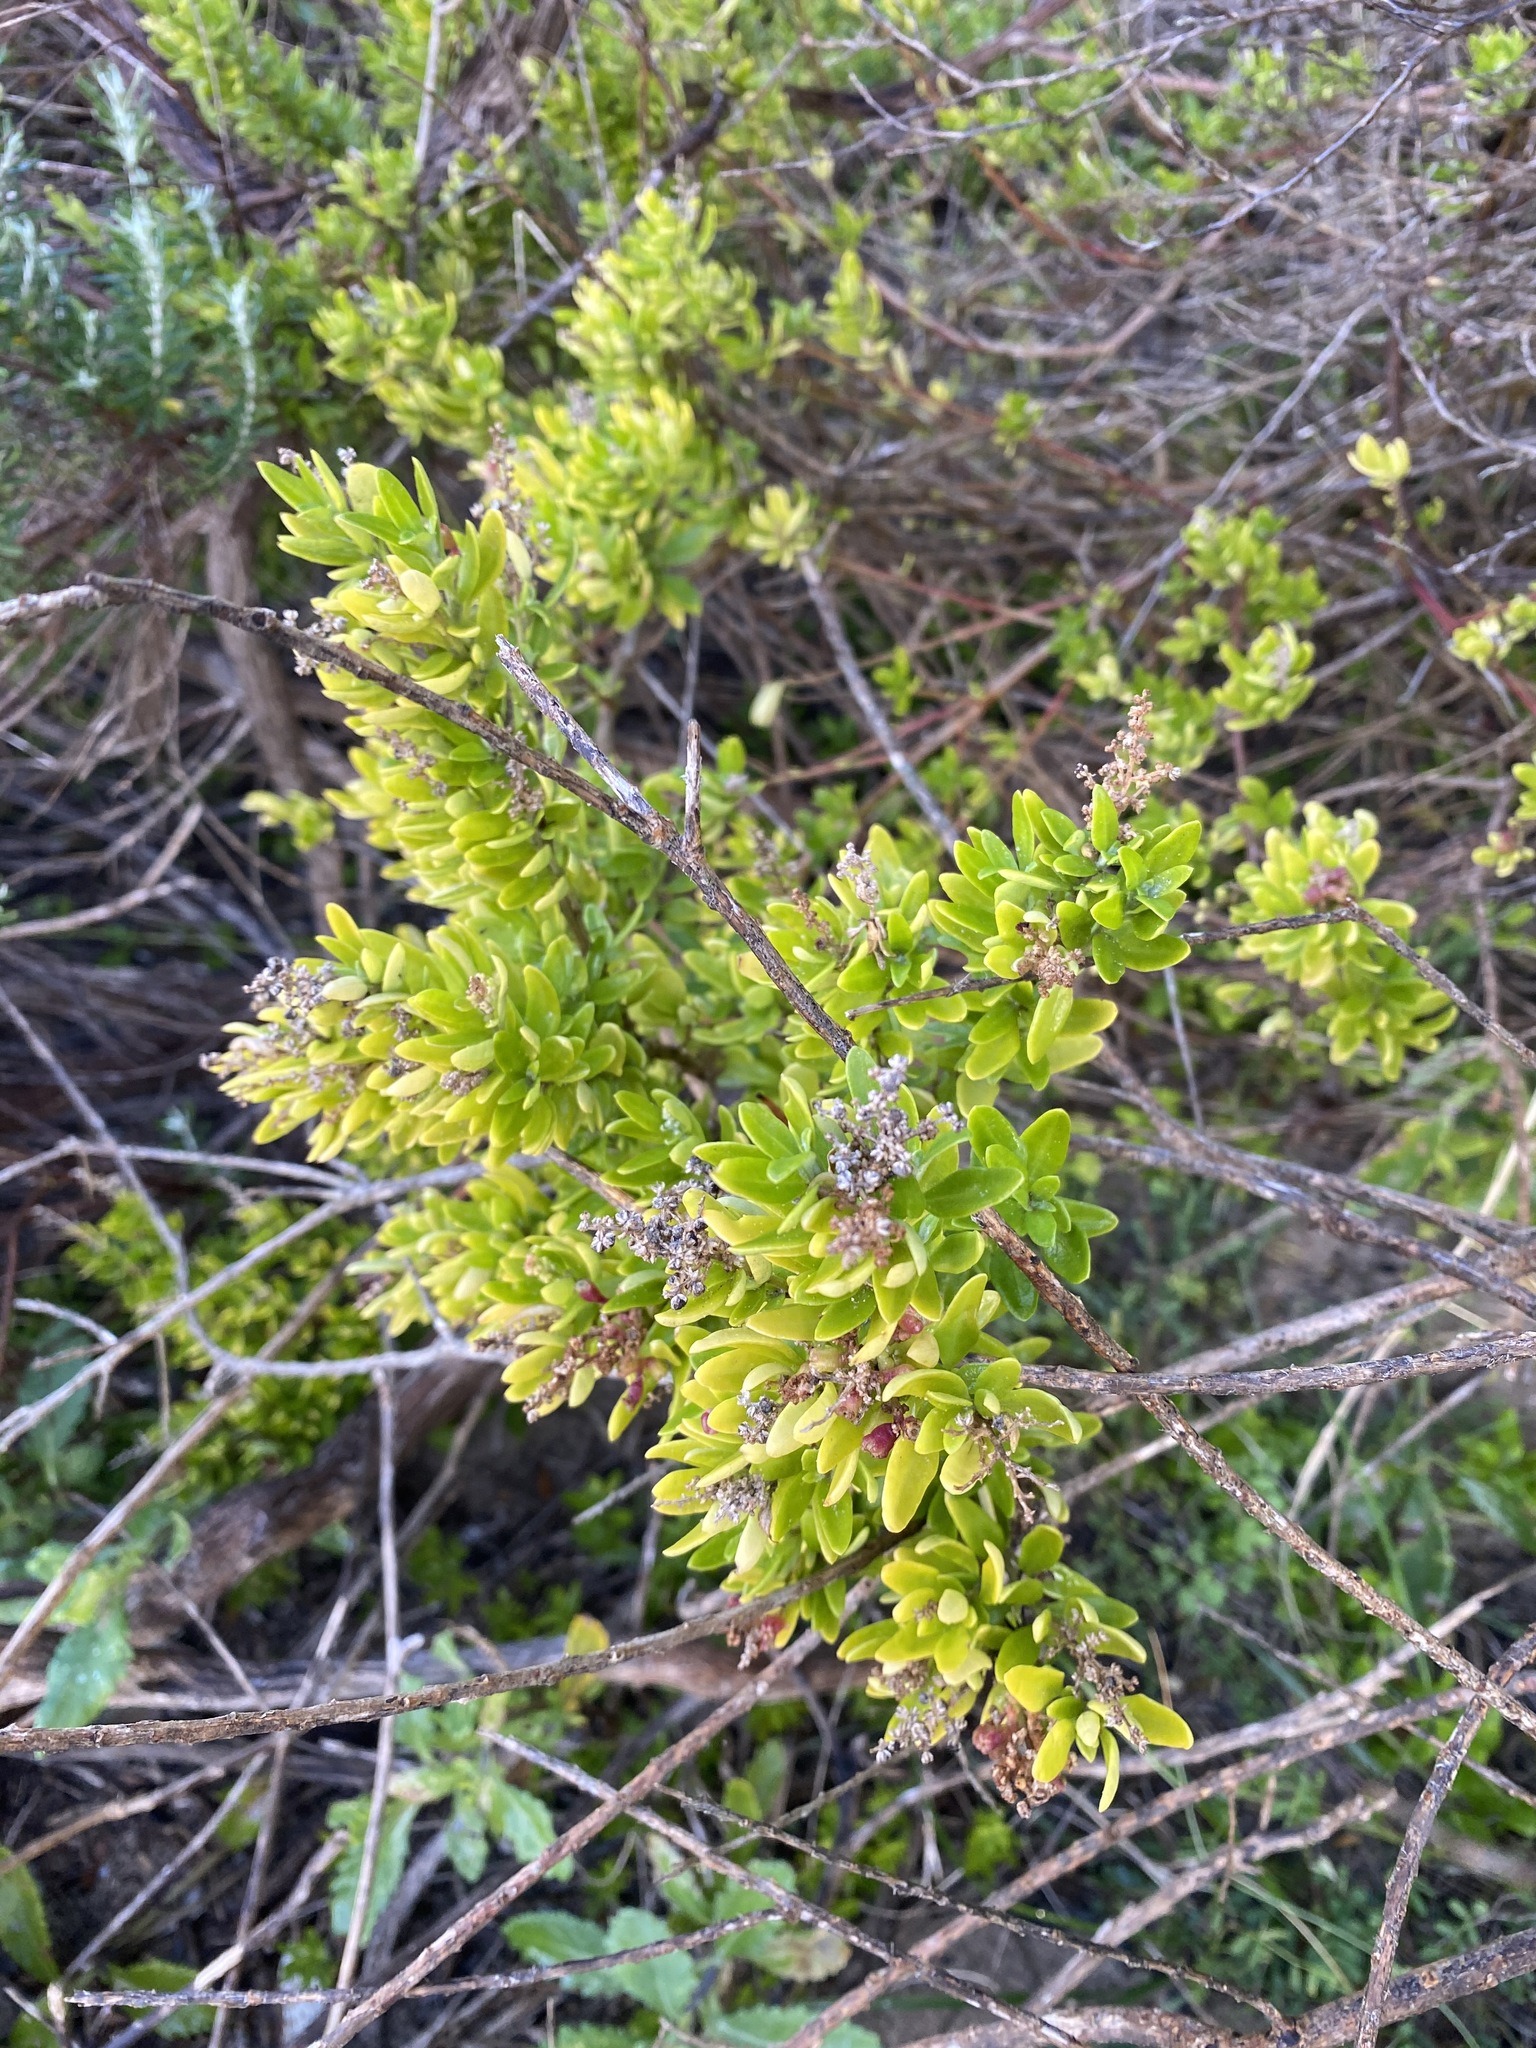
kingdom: Plantae
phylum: Tracheophyta
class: Magnoliopsida
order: Caryophyllales
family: Amaranthaceae
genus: Chenopodium
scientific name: Chenopodium candolleanum
